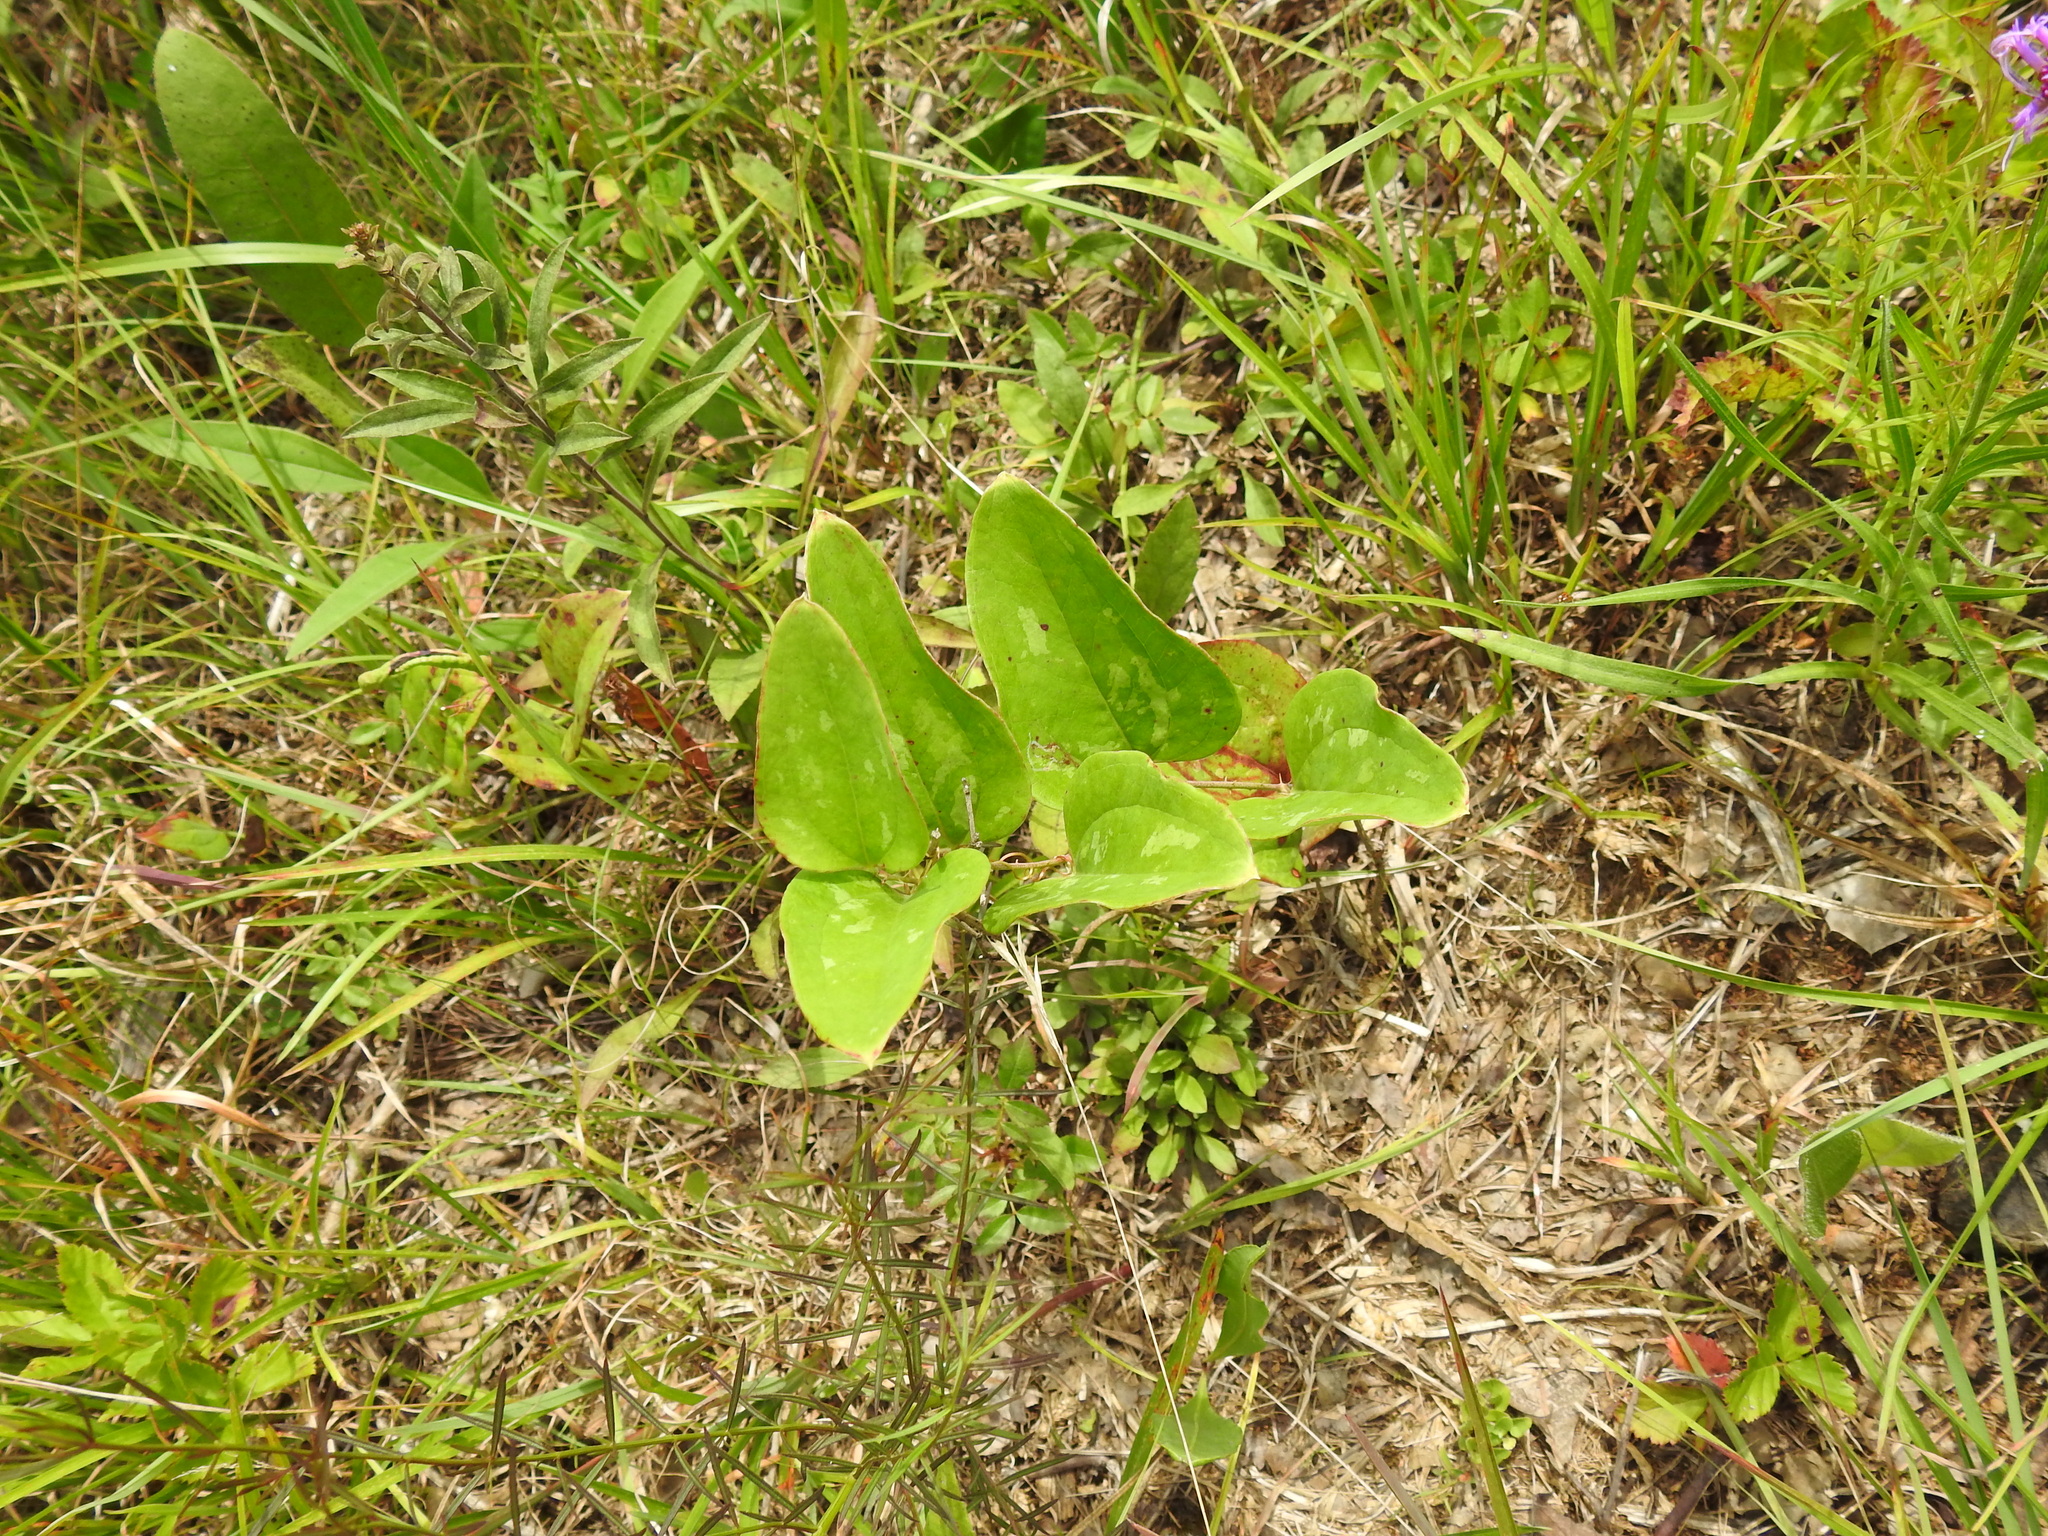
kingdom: Plantae
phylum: Tracheophyta
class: Liliopsida
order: Liliales
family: Smilacaceae
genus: Smilax
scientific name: Smilax glauca
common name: Cat greenbrier
